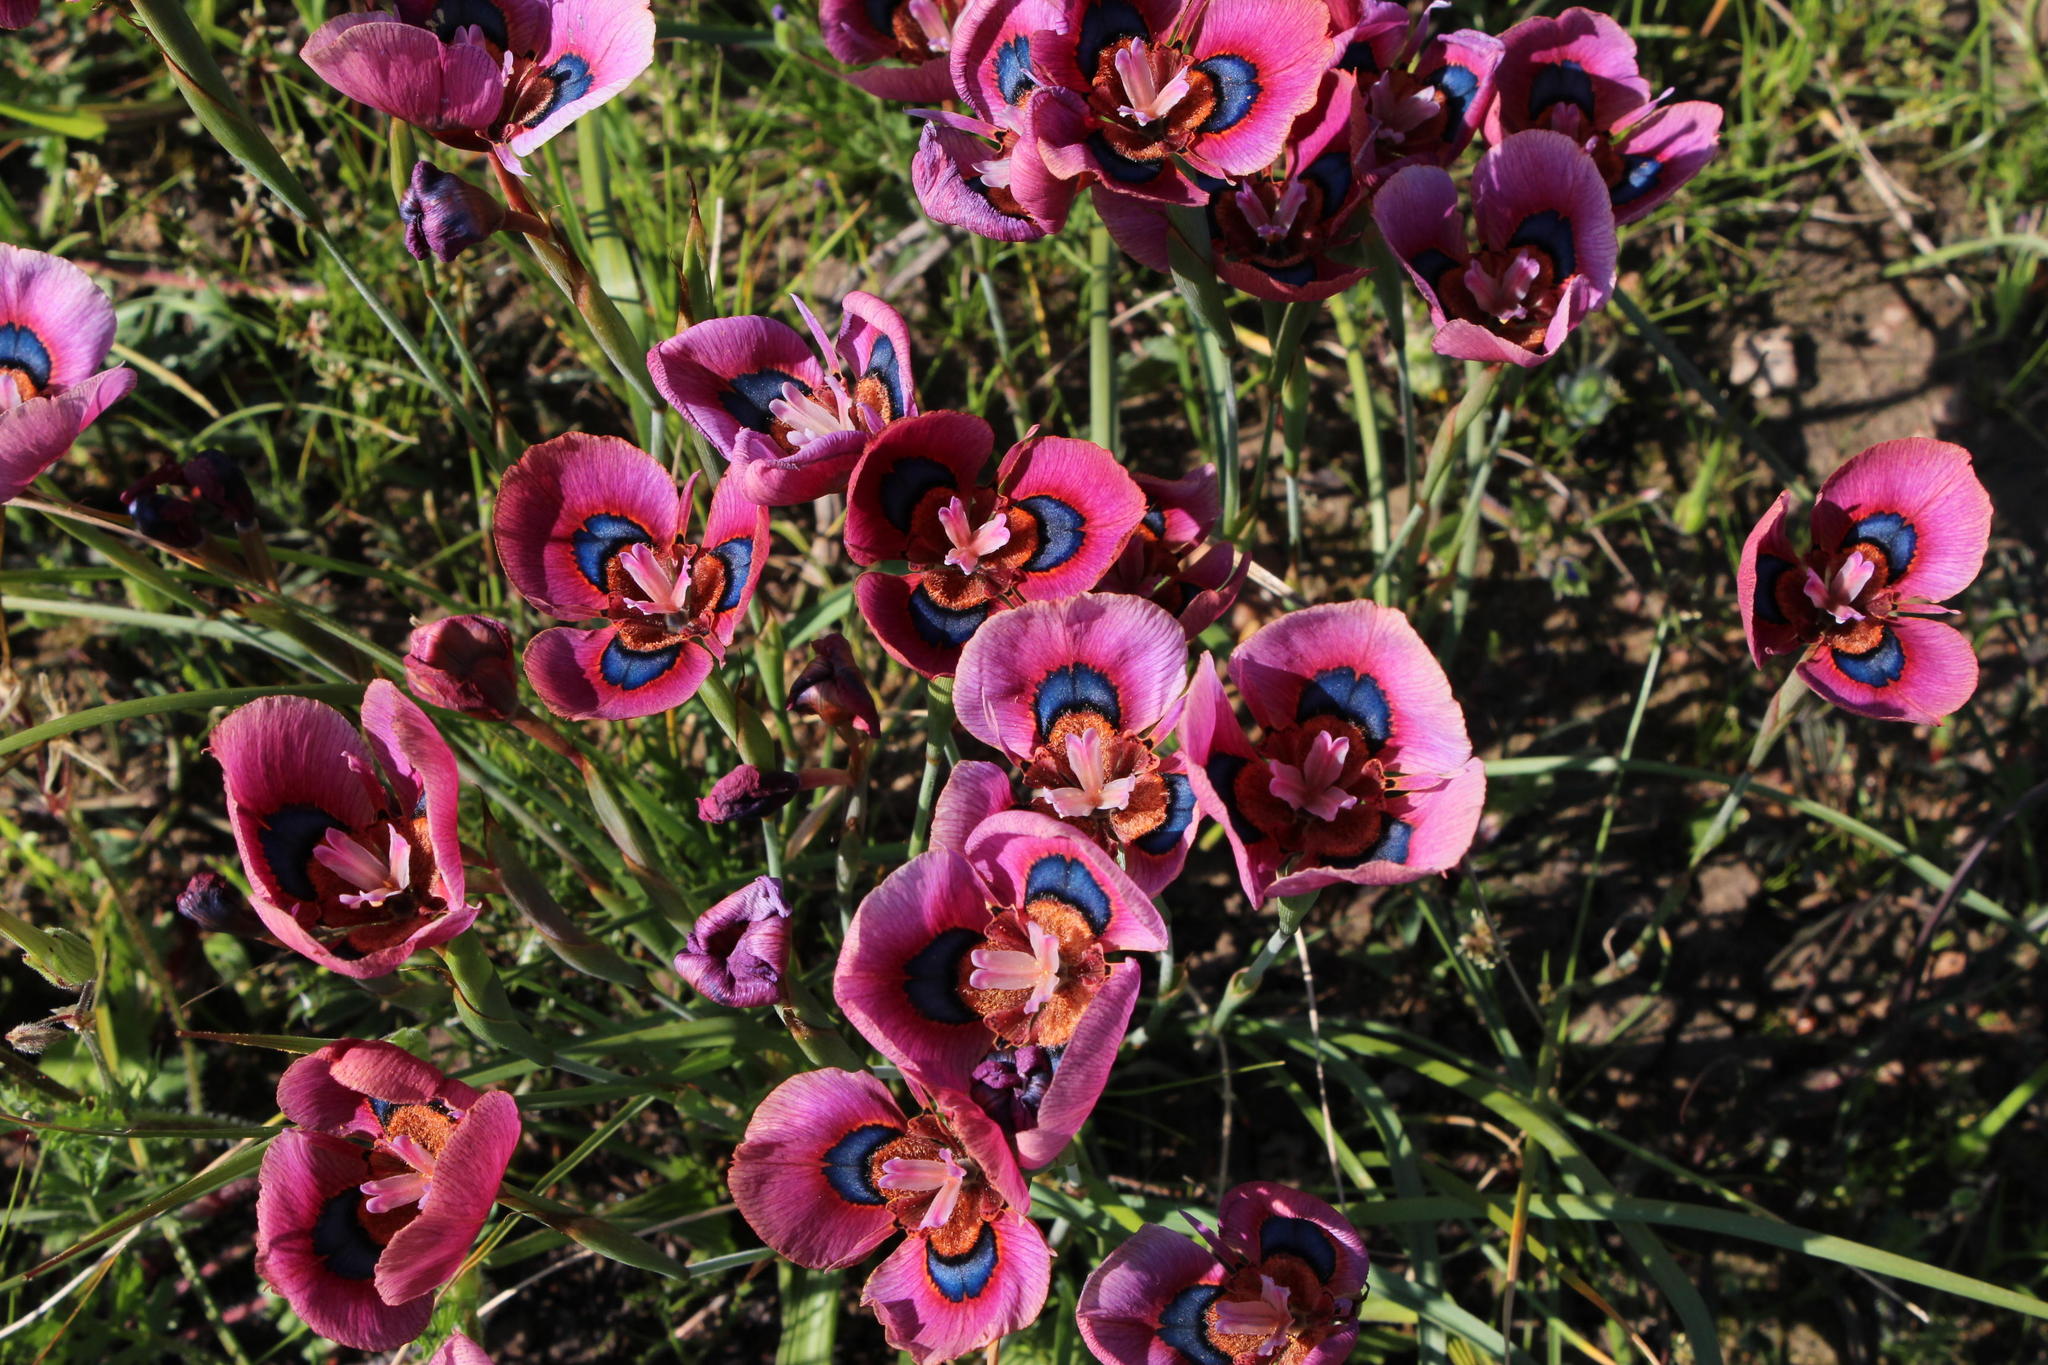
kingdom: Plantae
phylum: Tracheophyta
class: Liliopsida
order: Asparagales
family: Iridaceae
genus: Moraea
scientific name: Moraea villosa
